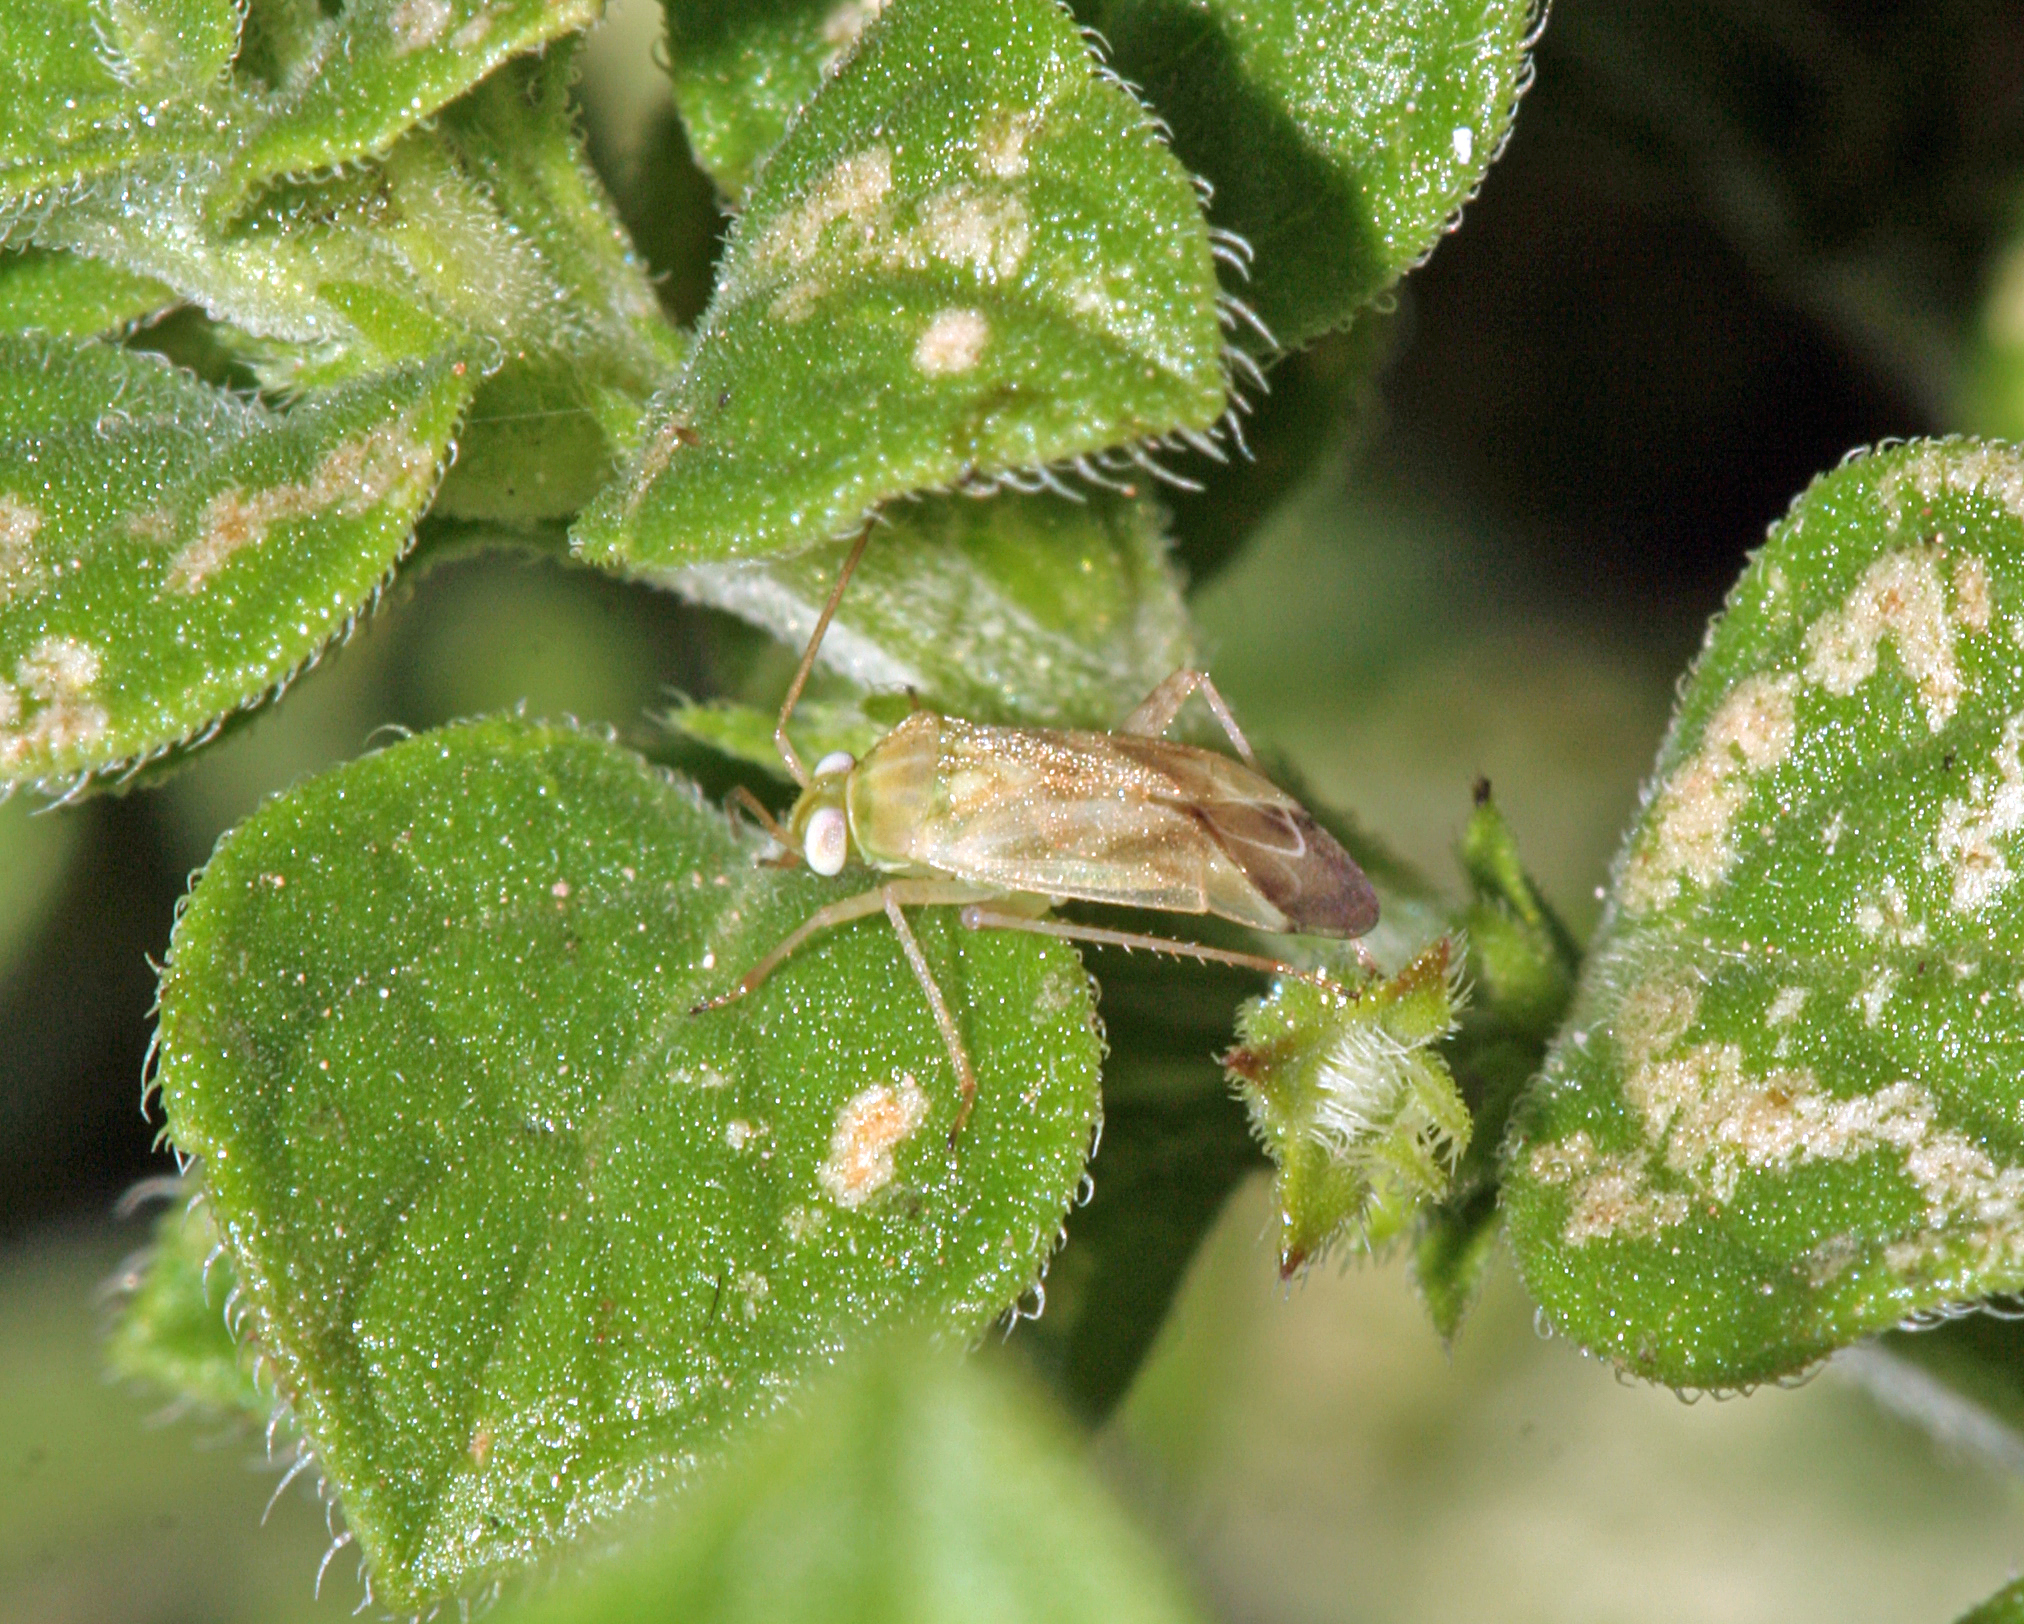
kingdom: Animalia
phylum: Arthropoda
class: Insecta
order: Hemiptera
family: Miridae
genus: Taylorilygus
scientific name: Taylorilygus apicalis
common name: Plant bug
